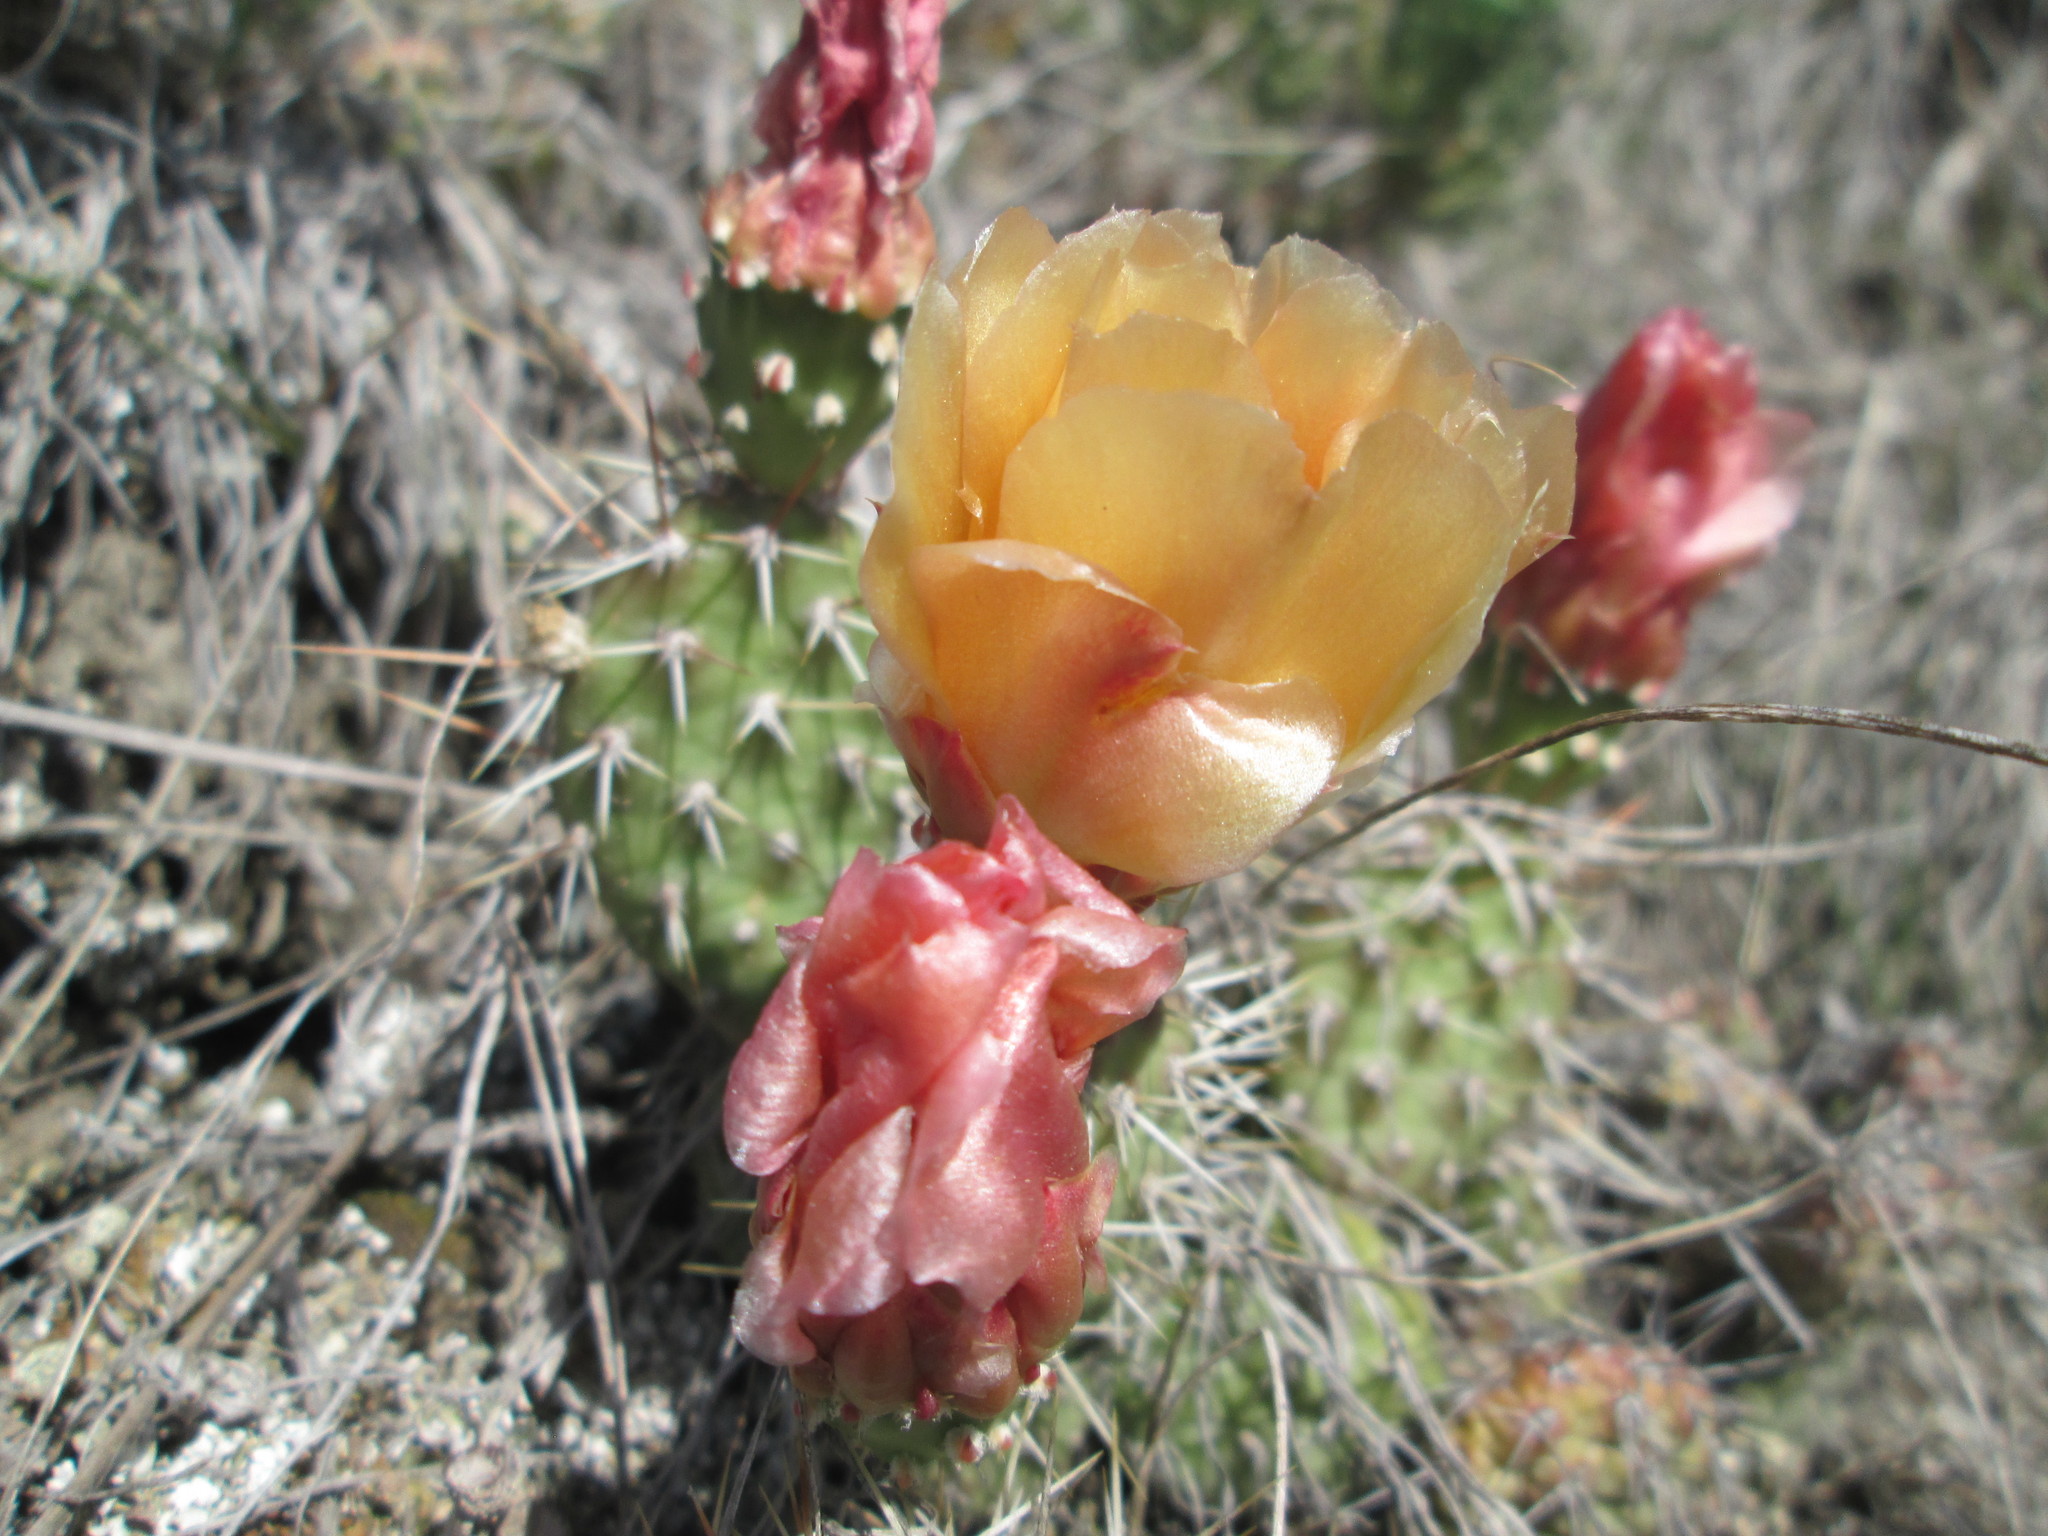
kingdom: Plantae
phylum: Tracheophyta
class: Magnoliopsida
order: Caryophyllales
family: Cactaceae
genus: Opuntia
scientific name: Opuntia fragilis
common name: Brittle cactus
